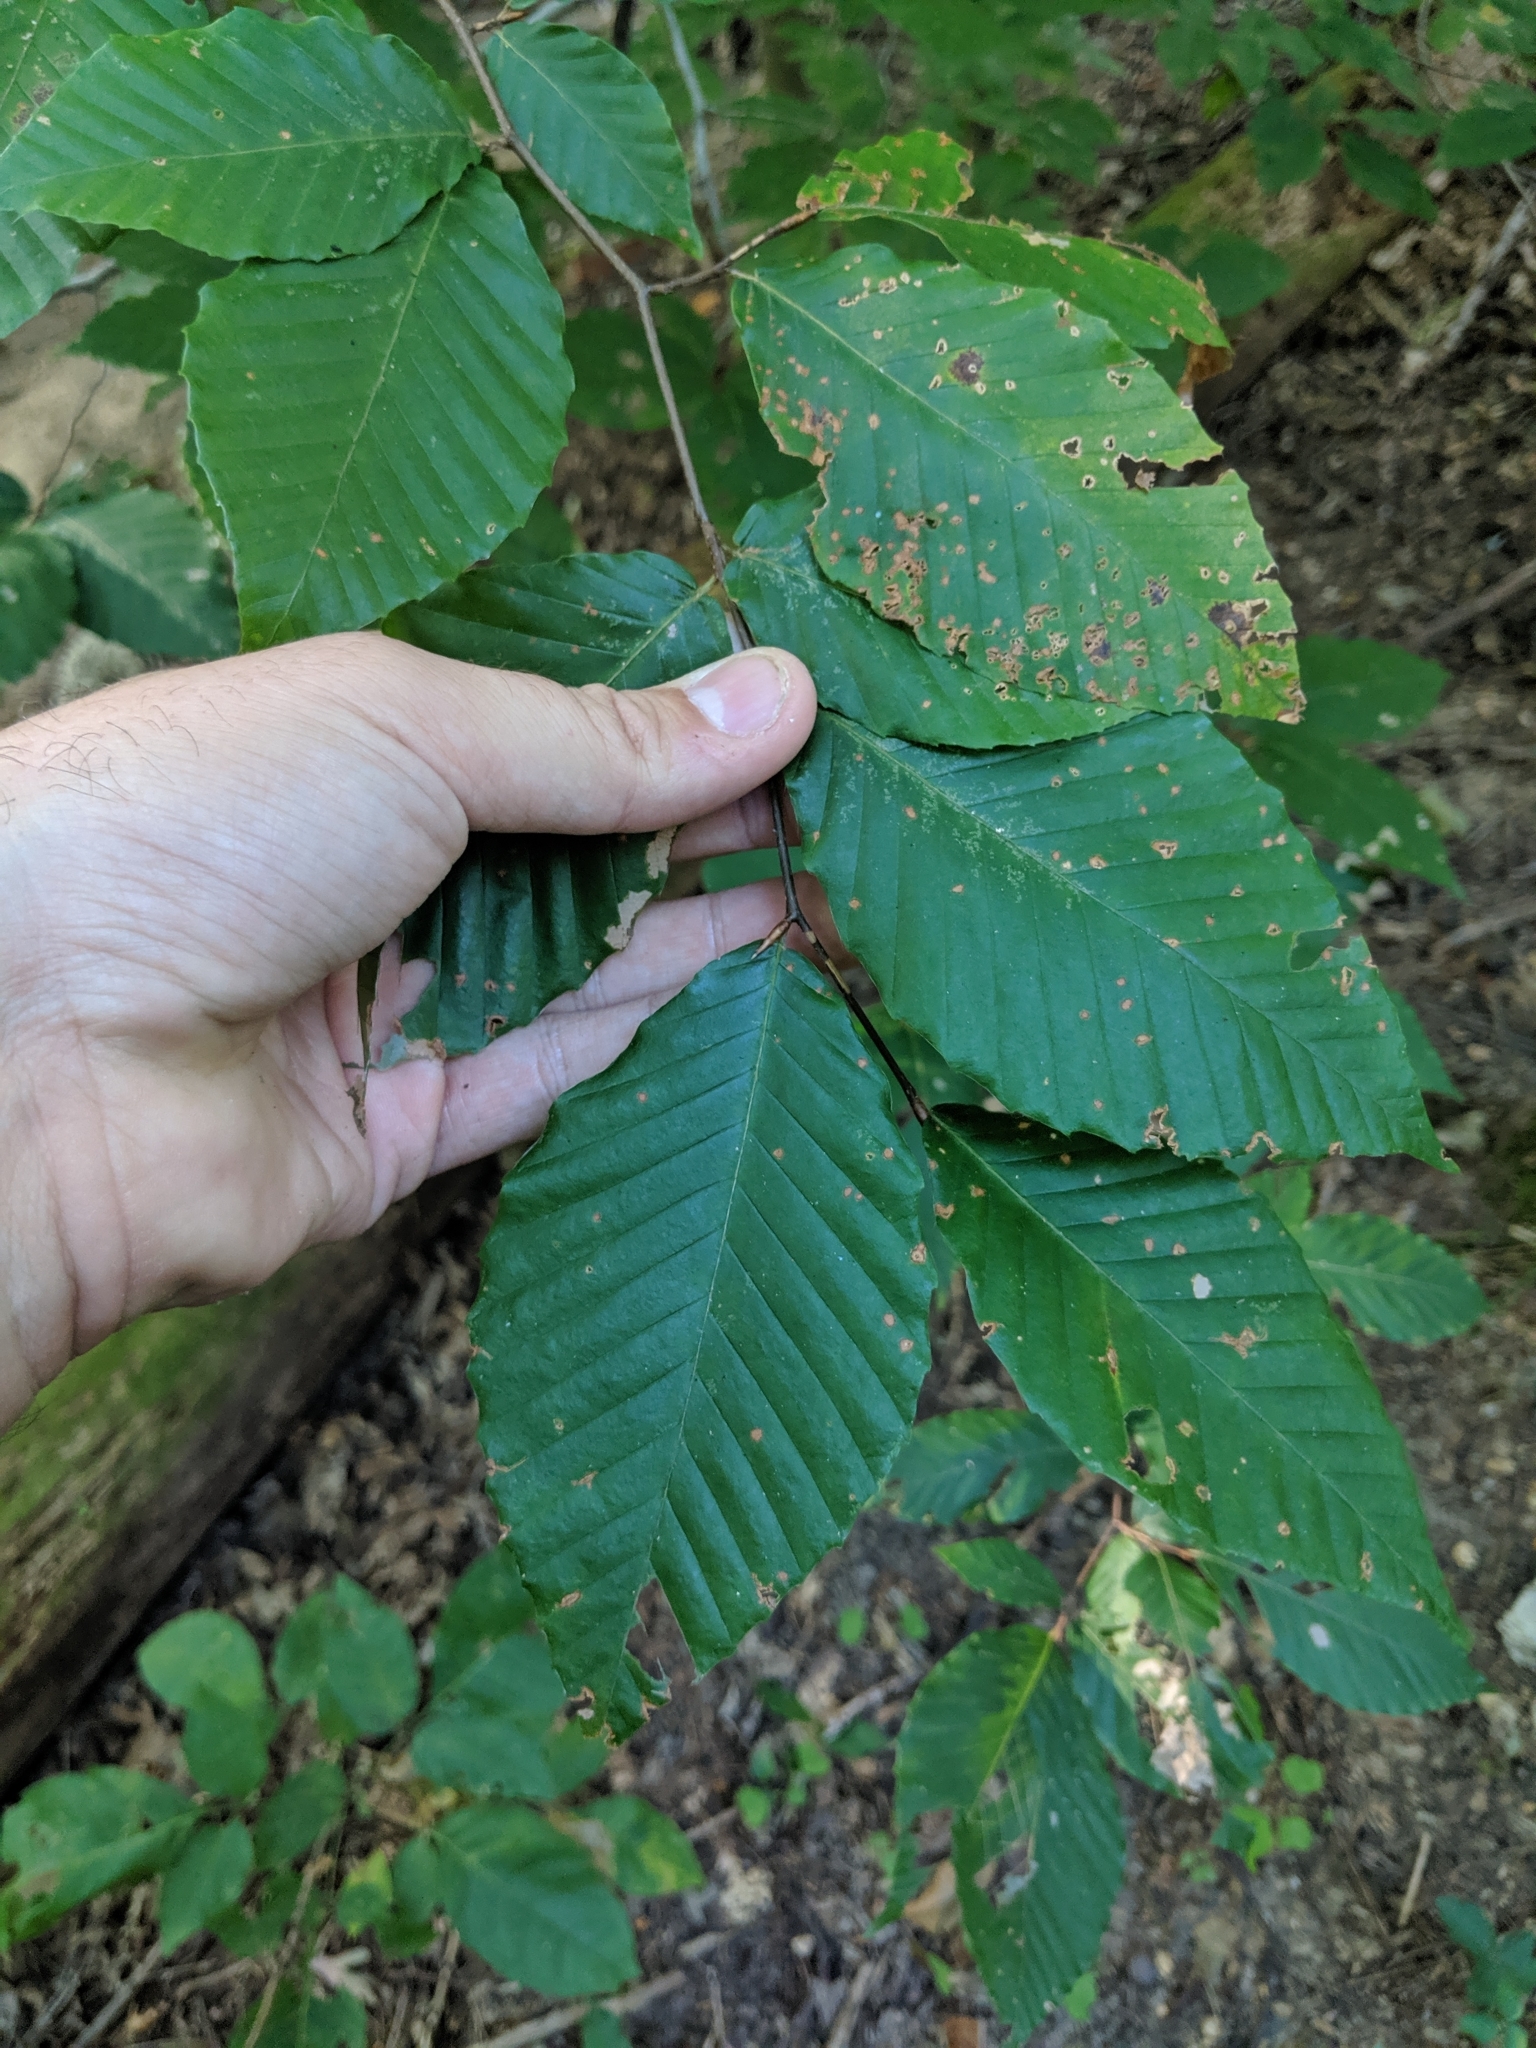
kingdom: Plantae
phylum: Tracheophyta
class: Magnoliopsida
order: Fagales
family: Fagaceae
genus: Fagus
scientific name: Fagus grandifolia
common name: American beech
